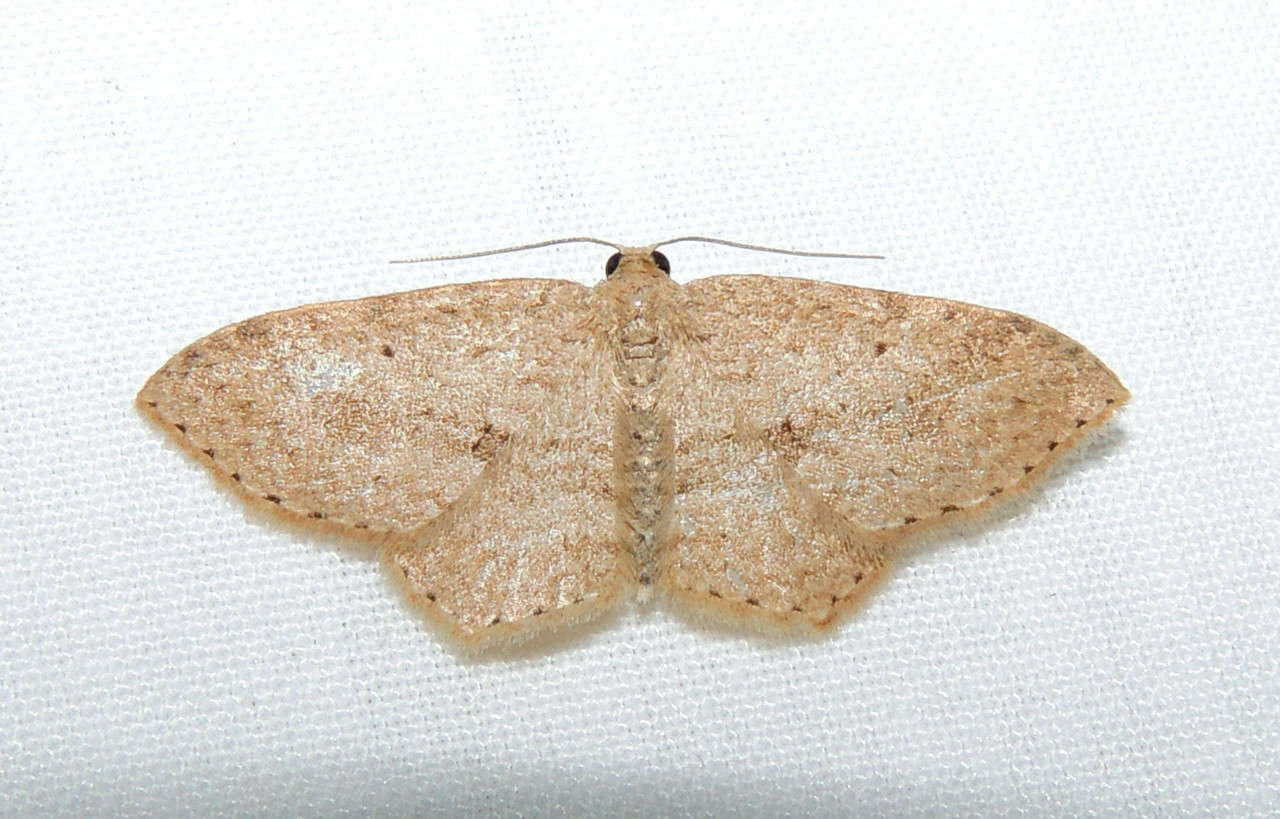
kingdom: Animalia
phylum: Arthropoda
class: Insecta
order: Lepidoptera
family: Geometridae
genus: Poecilasthena
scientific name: Poecilasthena
